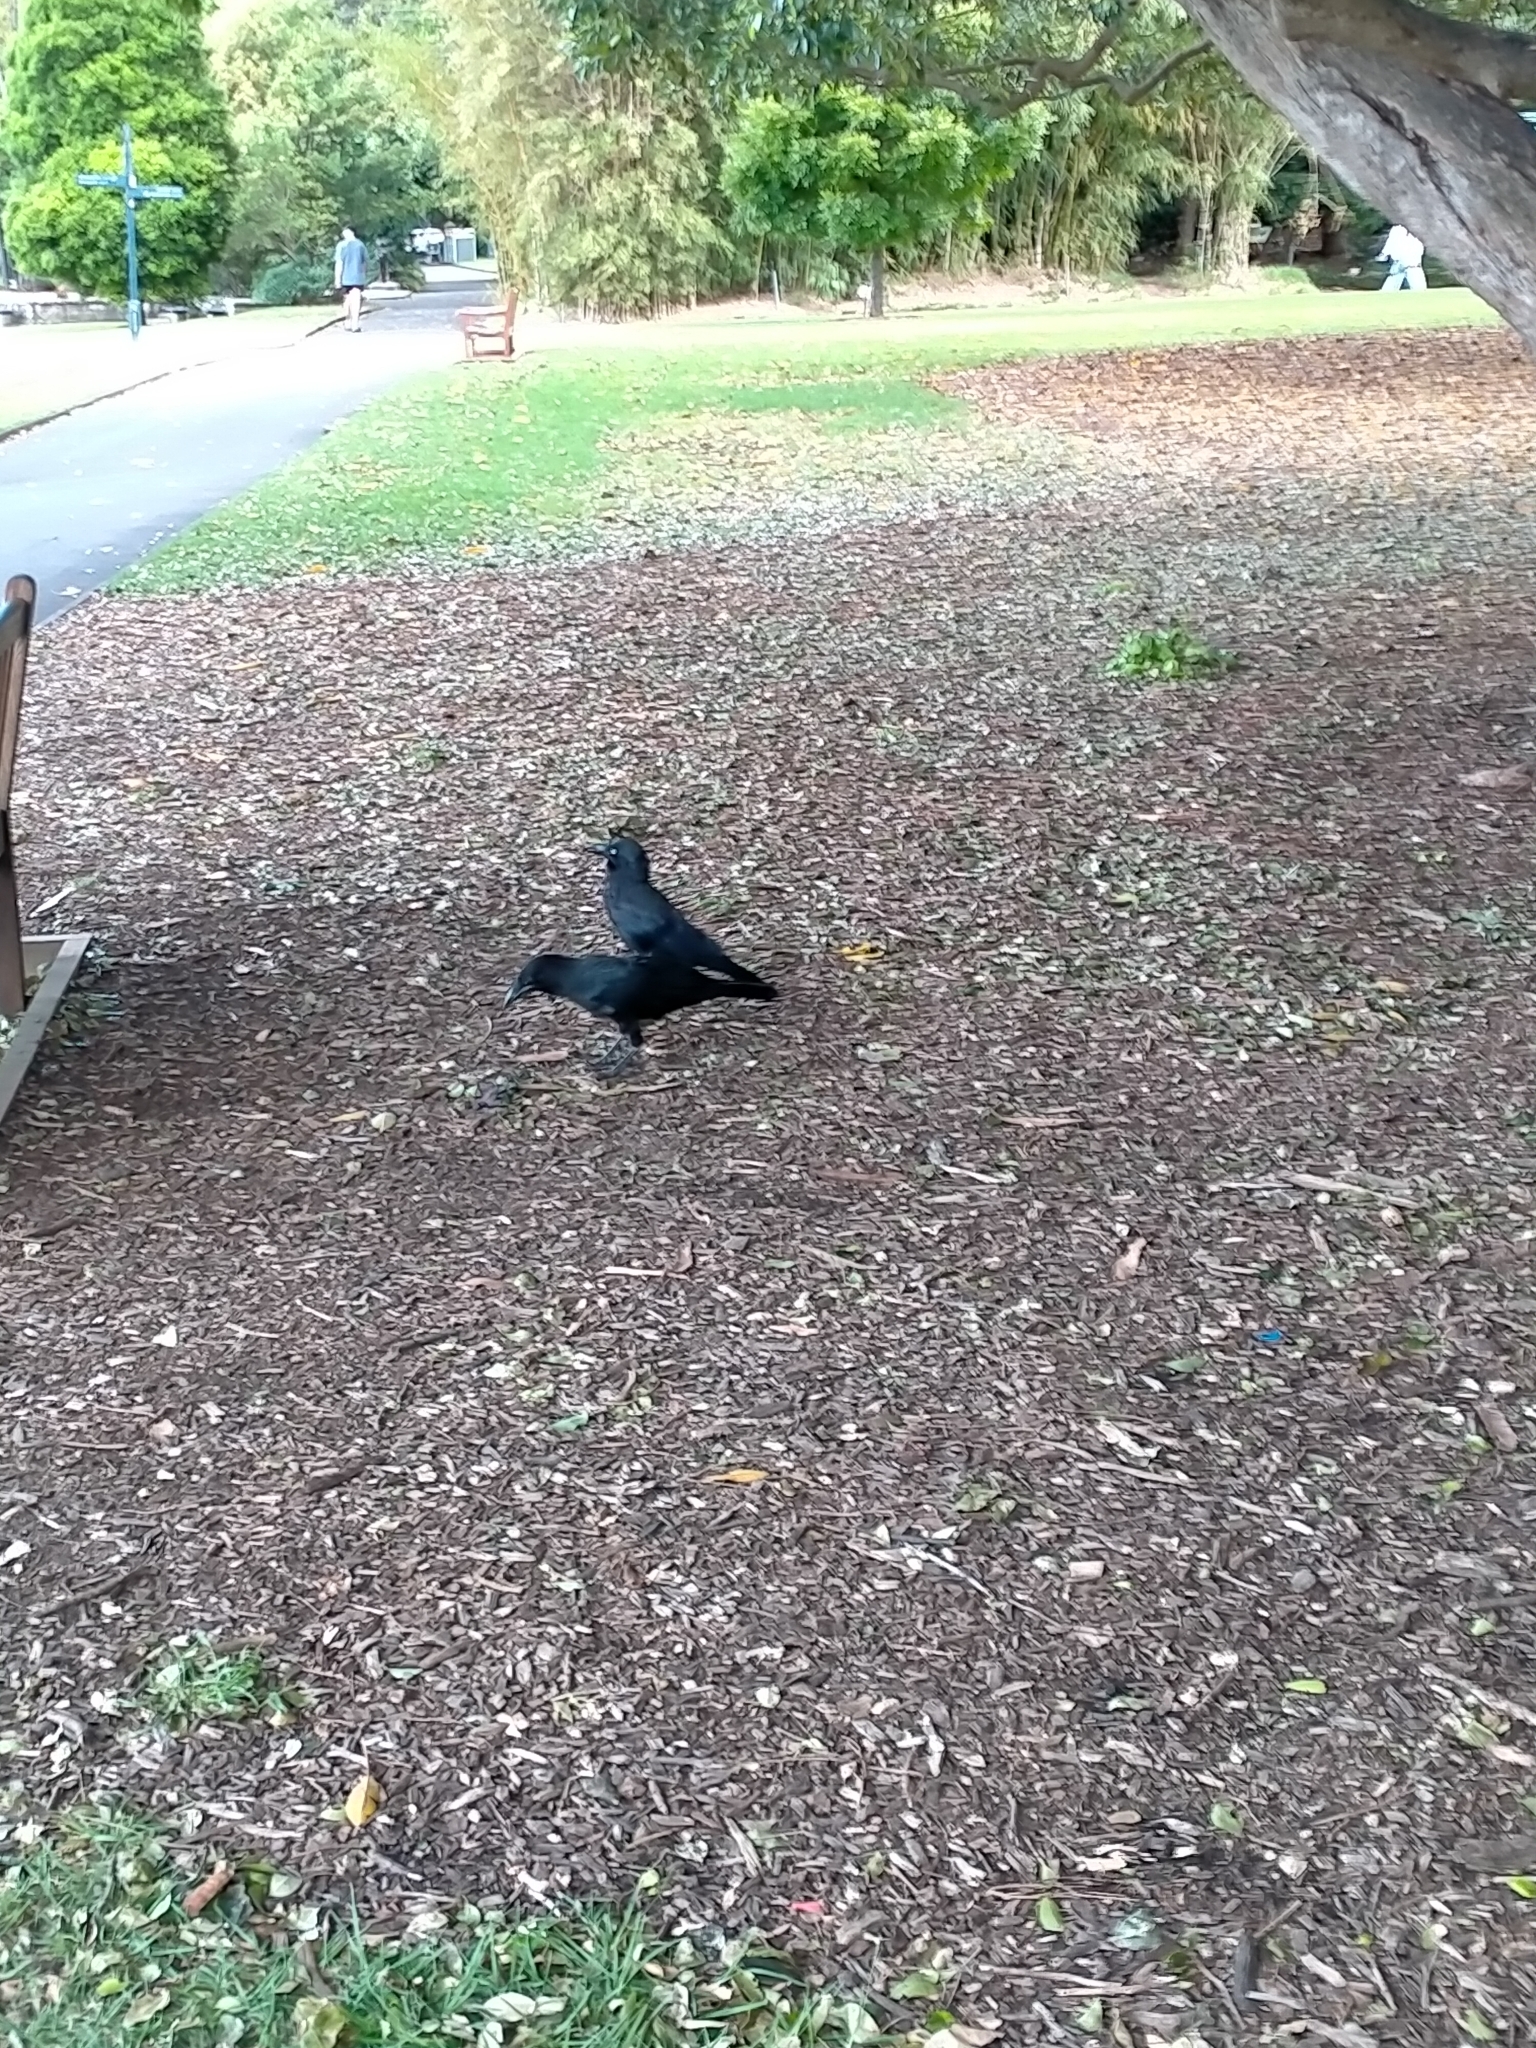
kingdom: Animalia
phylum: Chordata
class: Aves
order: Passeriformes
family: Corvidae
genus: Corvus
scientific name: Corvus coronoides
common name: Australian raven
